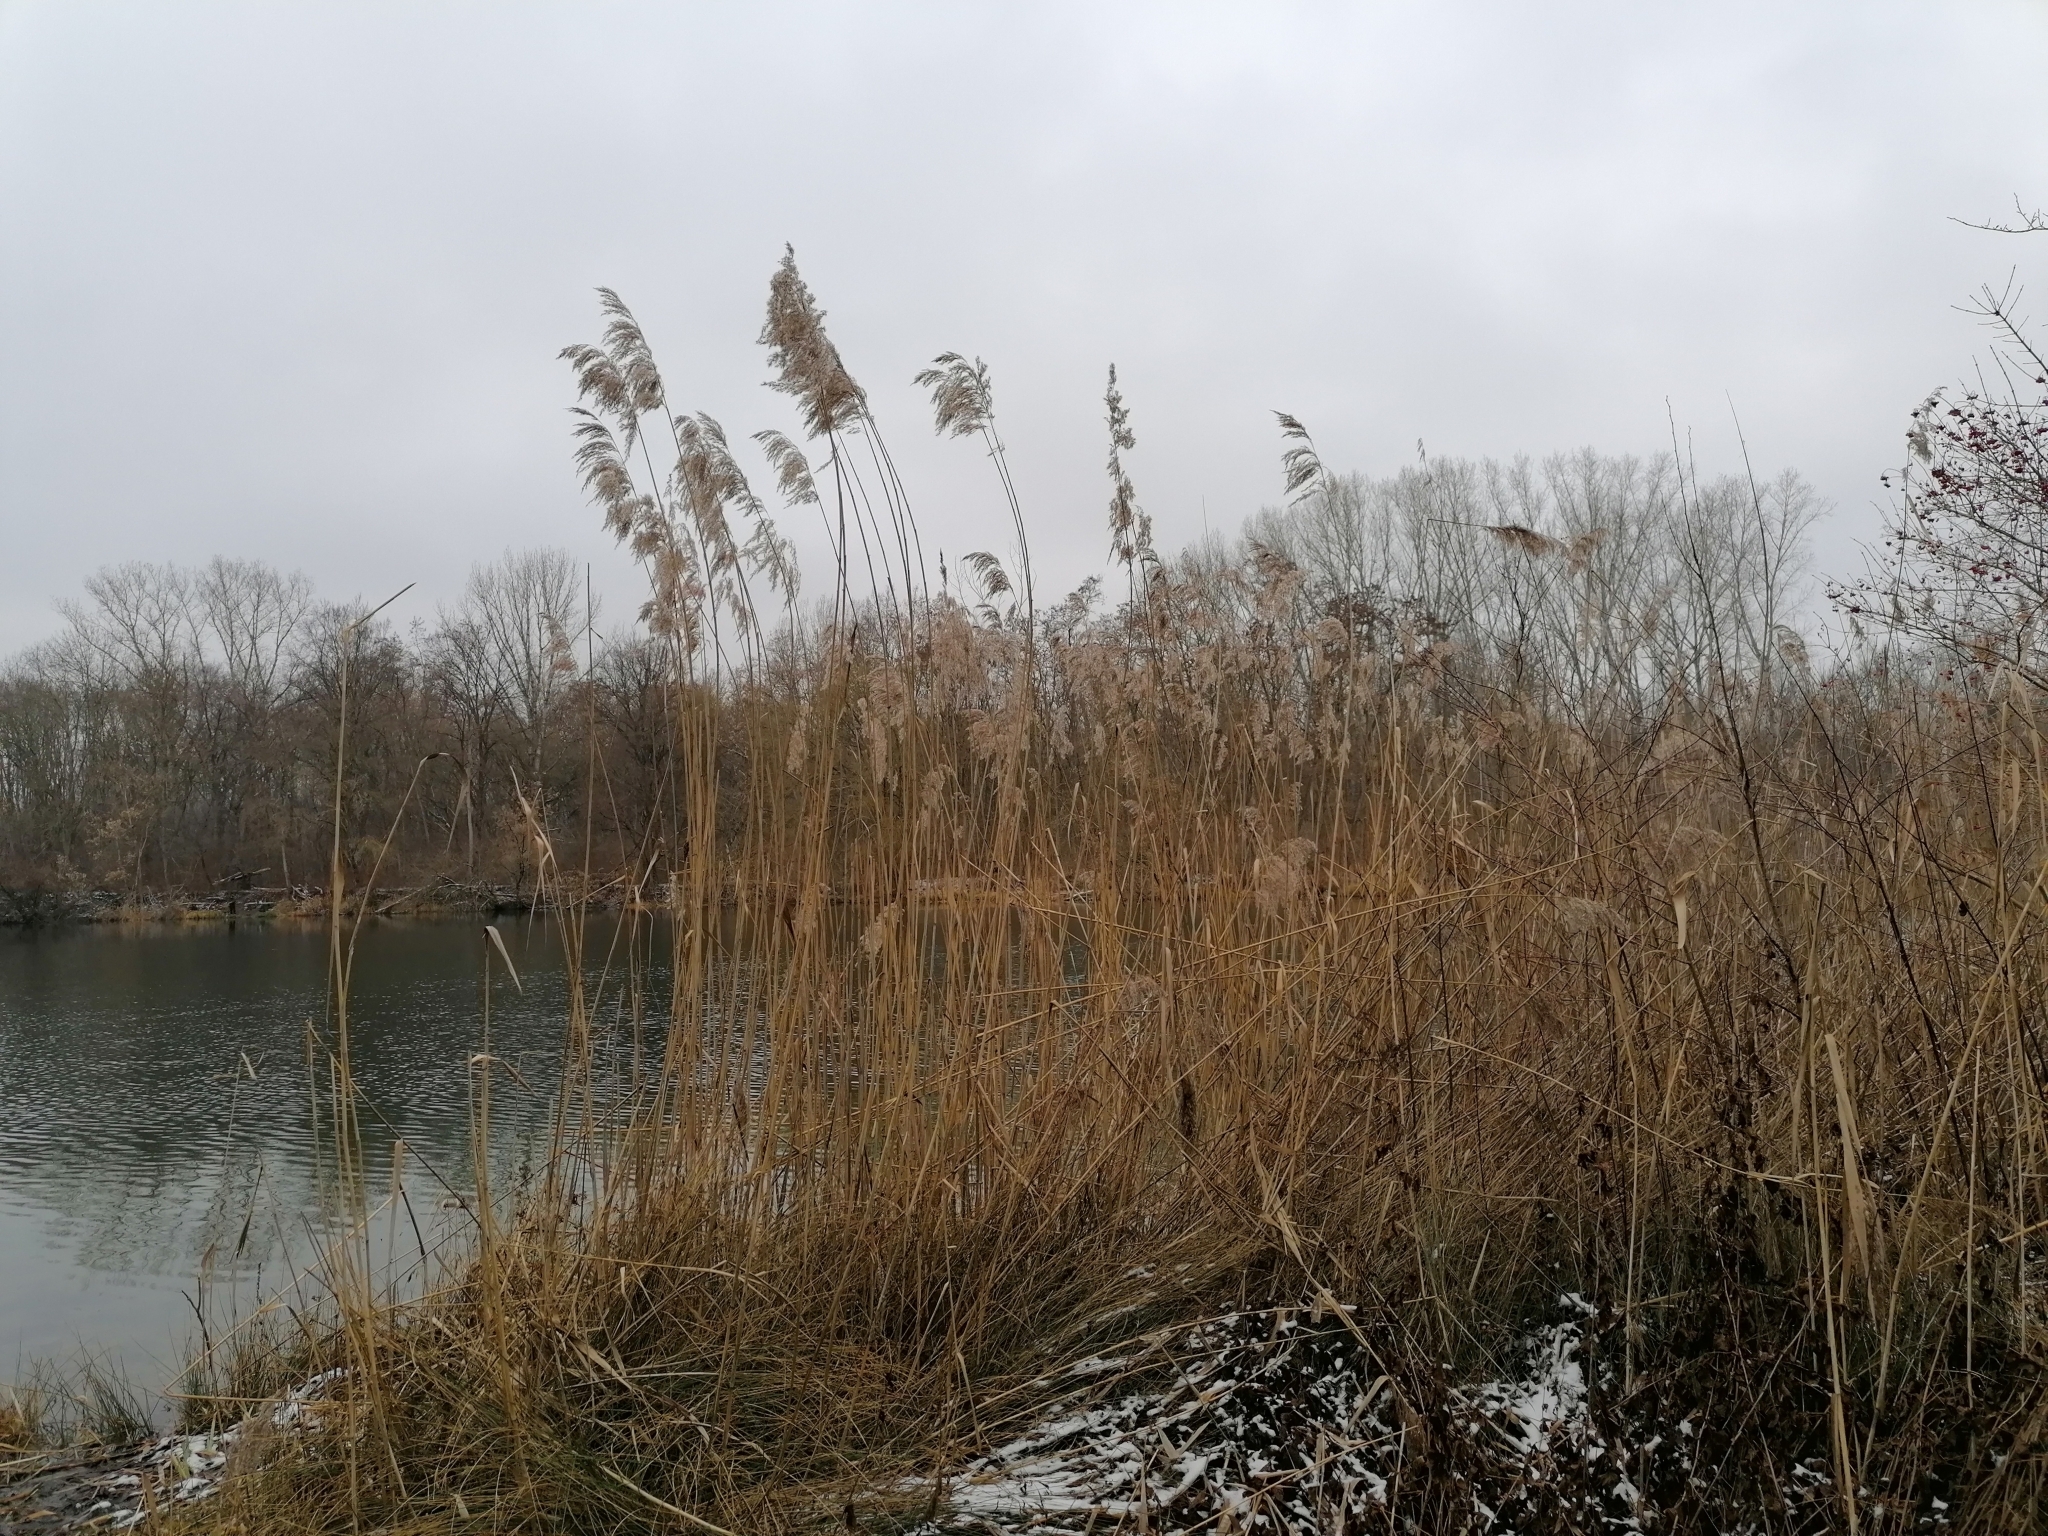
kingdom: Plantae
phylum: Tracheophyta
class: Liliopsida
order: Poales
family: Poaceae
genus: Phragmites
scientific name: Phragmites australis
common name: Common reed
